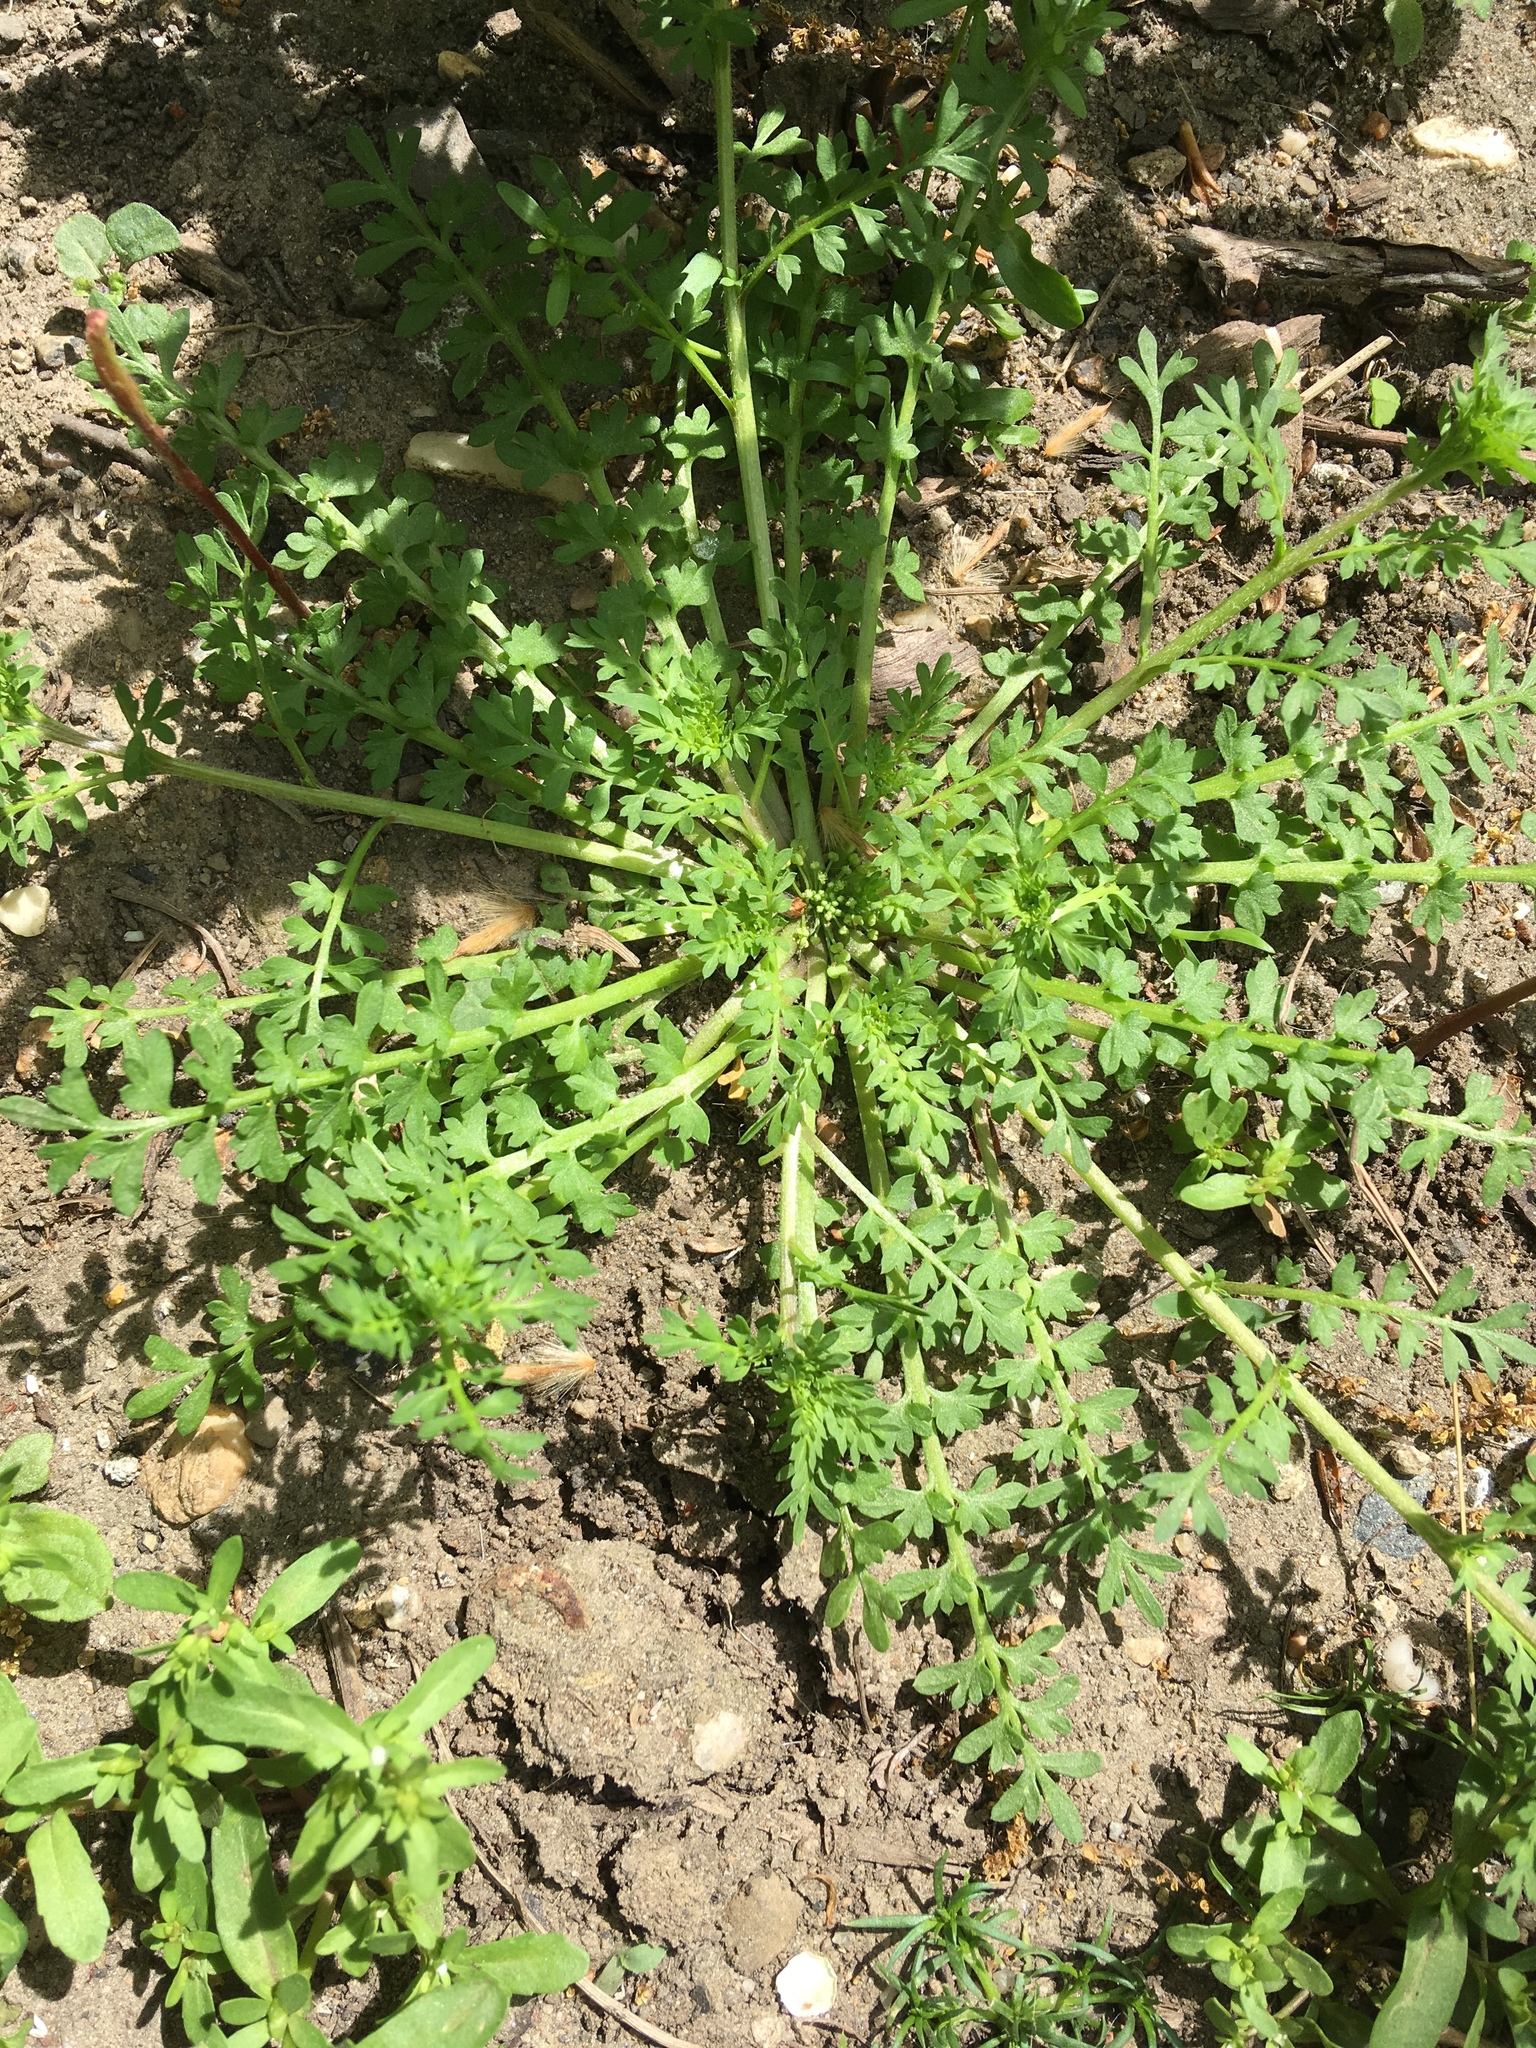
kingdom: Plantae
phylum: Tracheophyta
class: Magnoliopsida
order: Brassicales
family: Brassicaceae
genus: Lepidium
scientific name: Lepidium didymum
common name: Lesser swinecress
